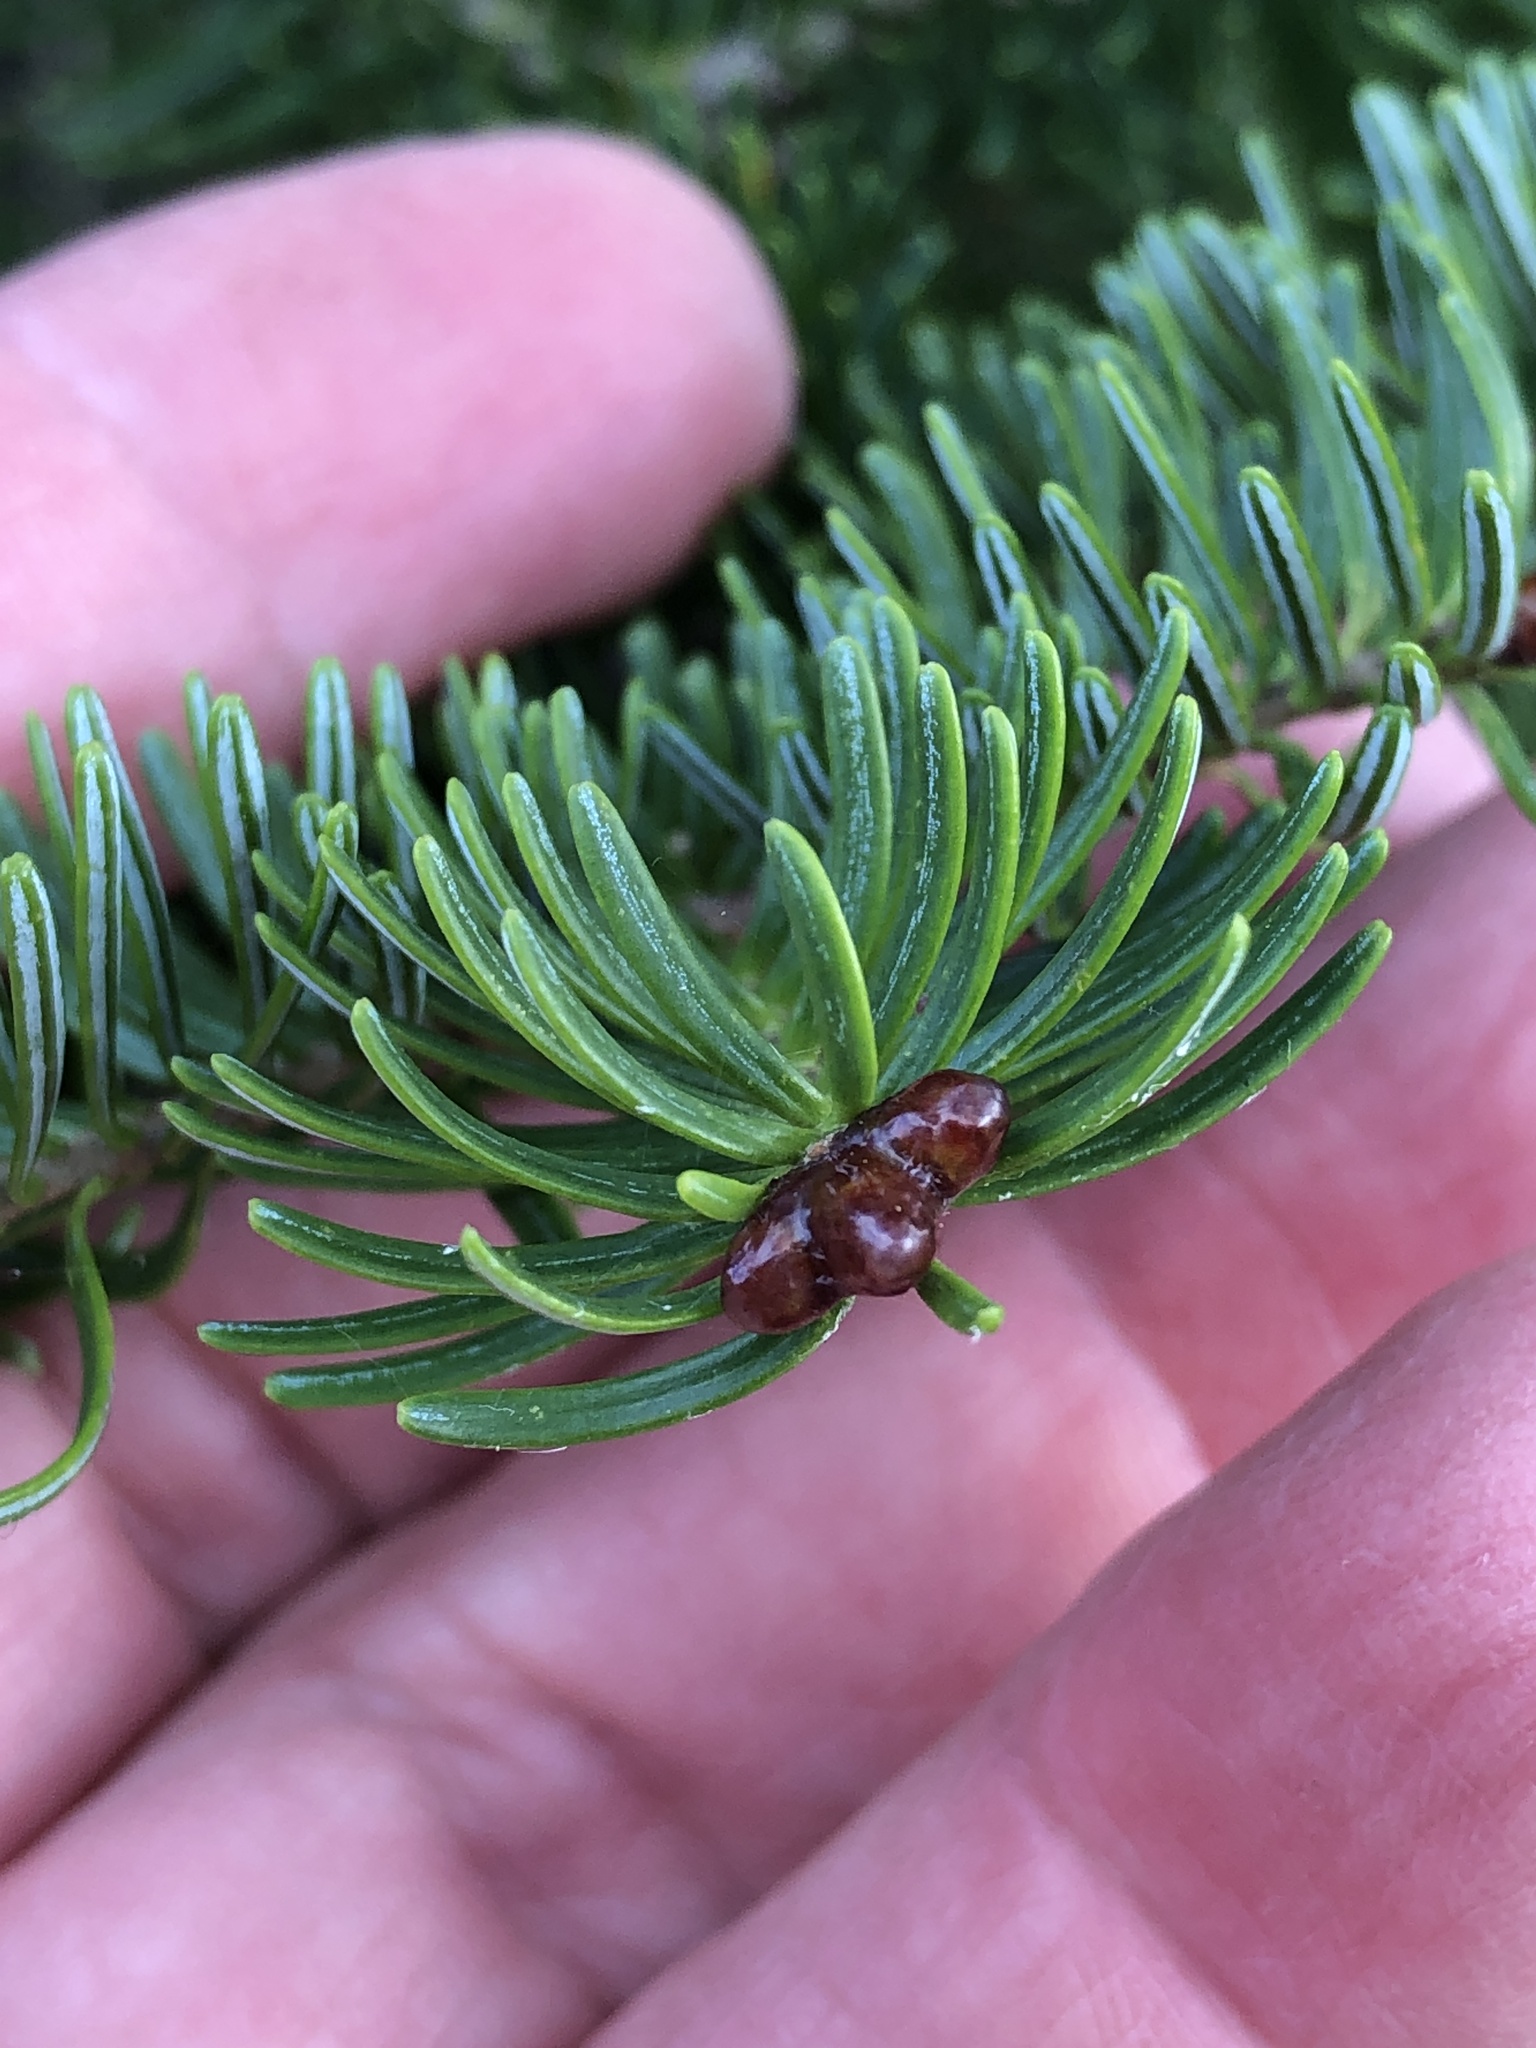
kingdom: Plantae
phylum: Tracheophyta
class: Pinopsida
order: Pinales
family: Pinaceae
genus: Abies
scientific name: Abies balsamea
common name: Balsam fir
